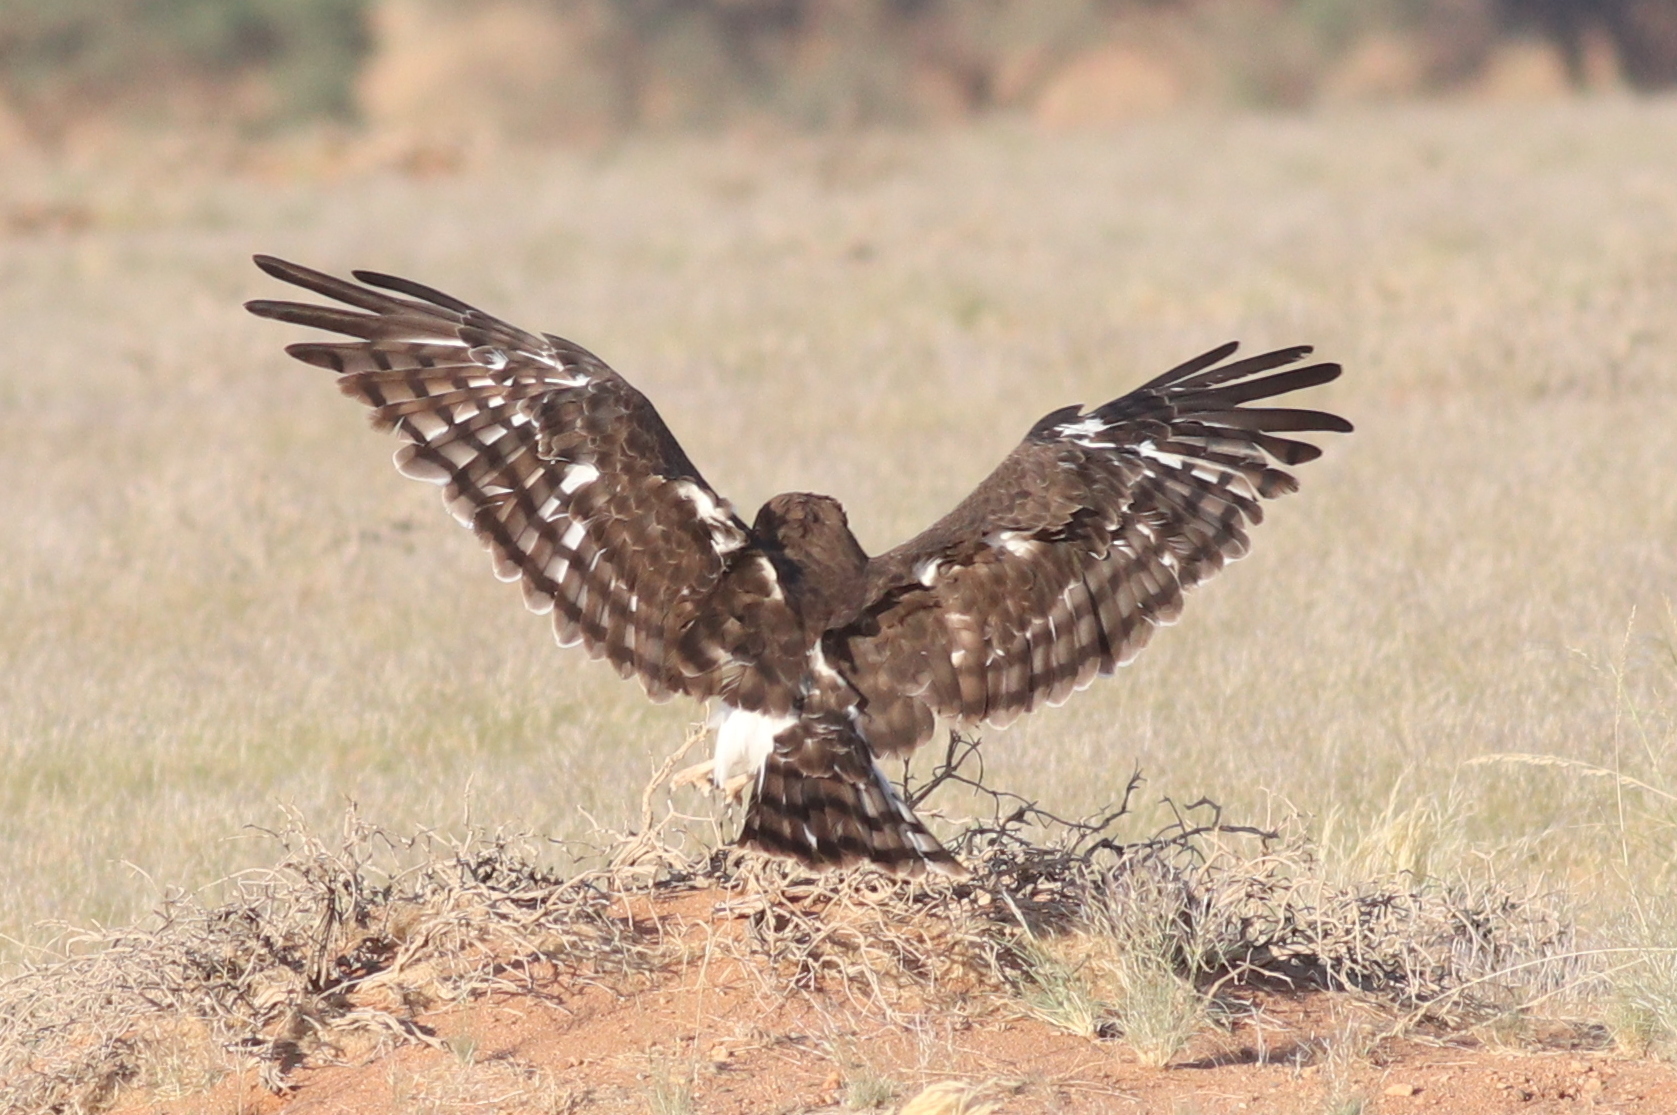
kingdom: Animalia
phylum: Chordata
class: Aves
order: Accipitriformes
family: Accipitridae
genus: Circaetus
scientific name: Circaetus pectoralis
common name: Black-chested snake eagle
